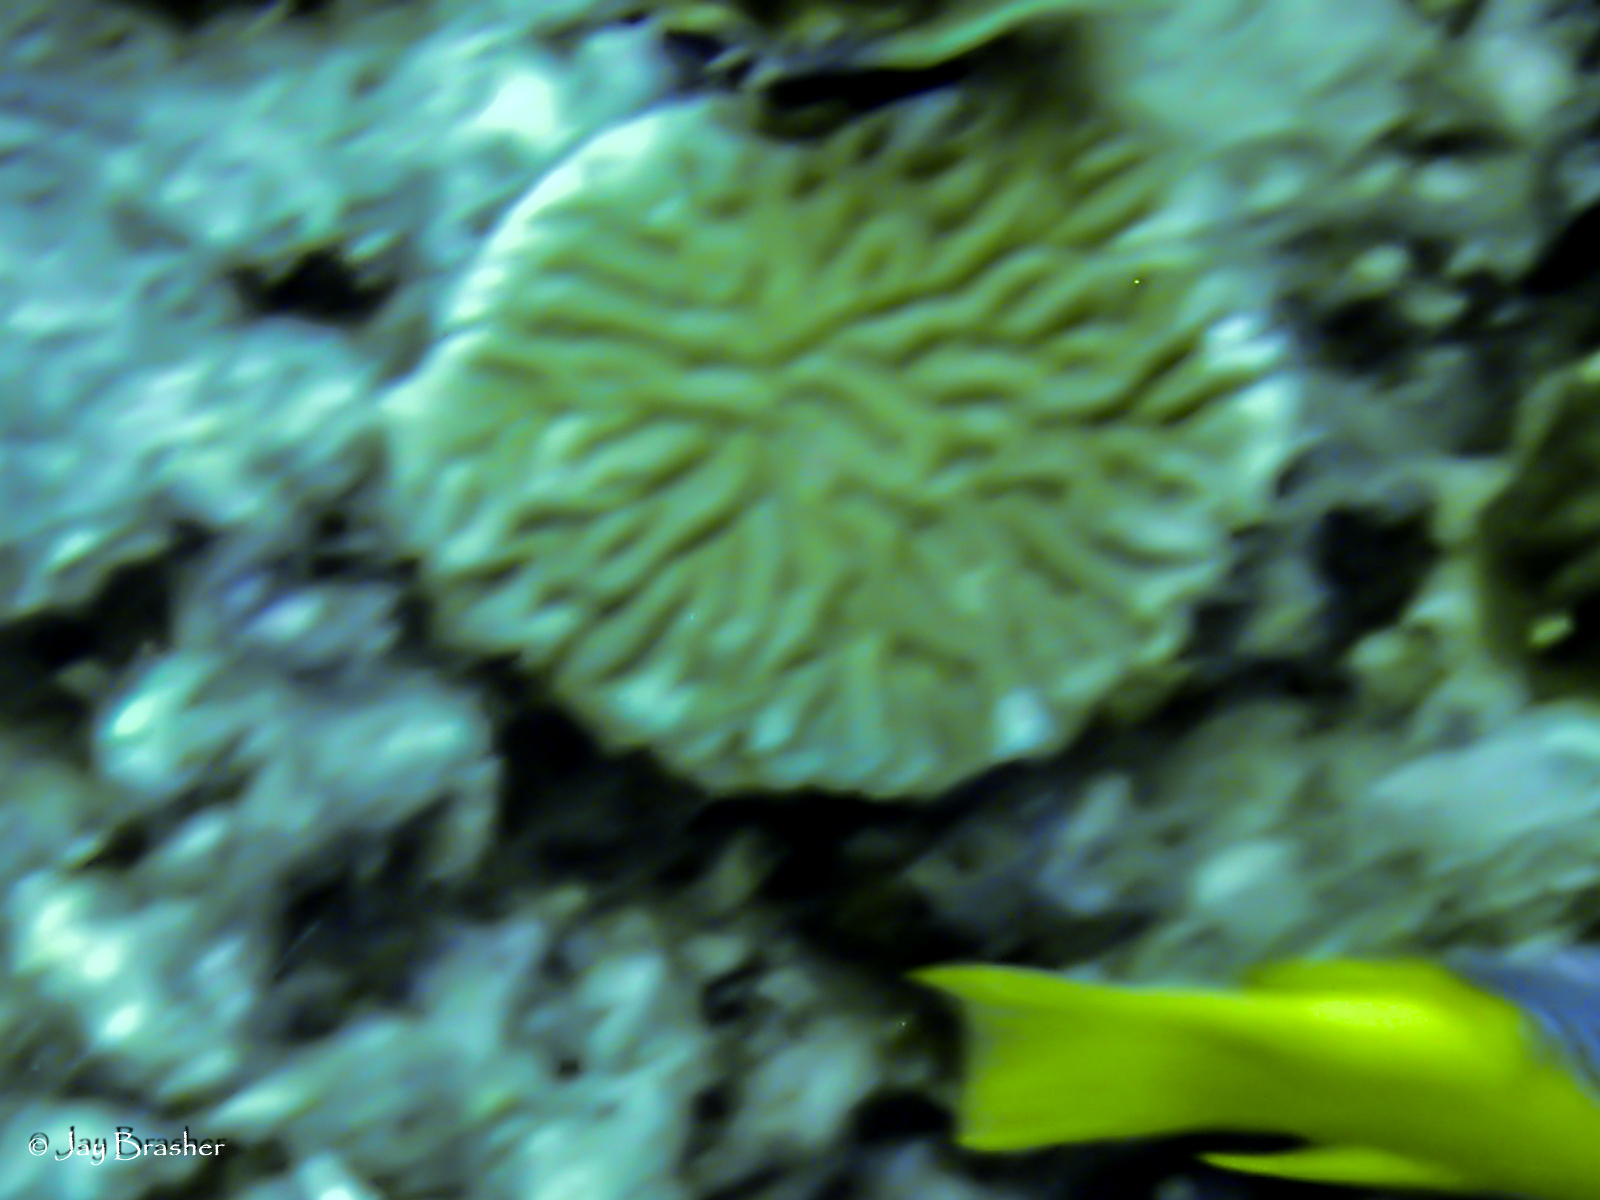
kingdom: Animalia
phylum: Cnidaria
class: Anthozoa
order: Scleractinia
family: Meandrinidae
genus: Meandrina
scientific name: Meandrina meandrites
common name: Maze coral
